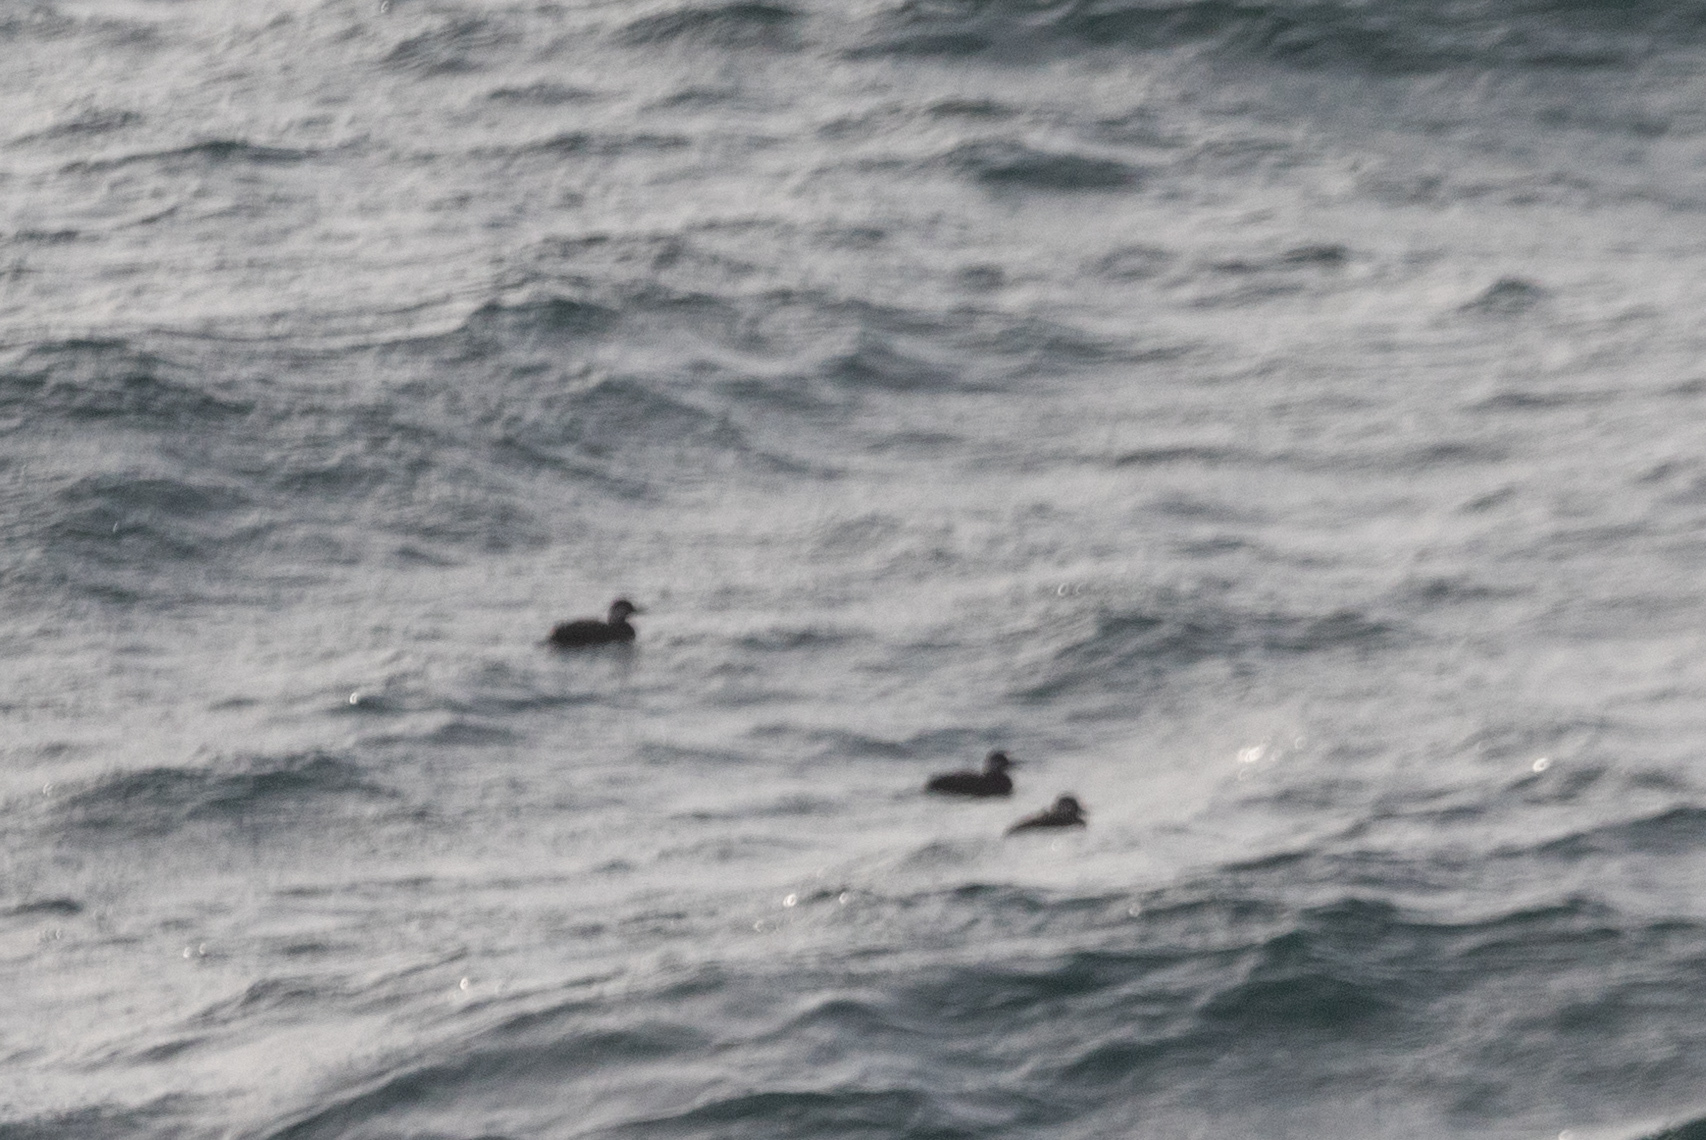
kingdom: Animalia
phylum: Chordata
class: Aves
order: Anseriformes
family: Anatidae
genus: Melanitta
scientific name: Melanitta americana
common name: Black scoter
